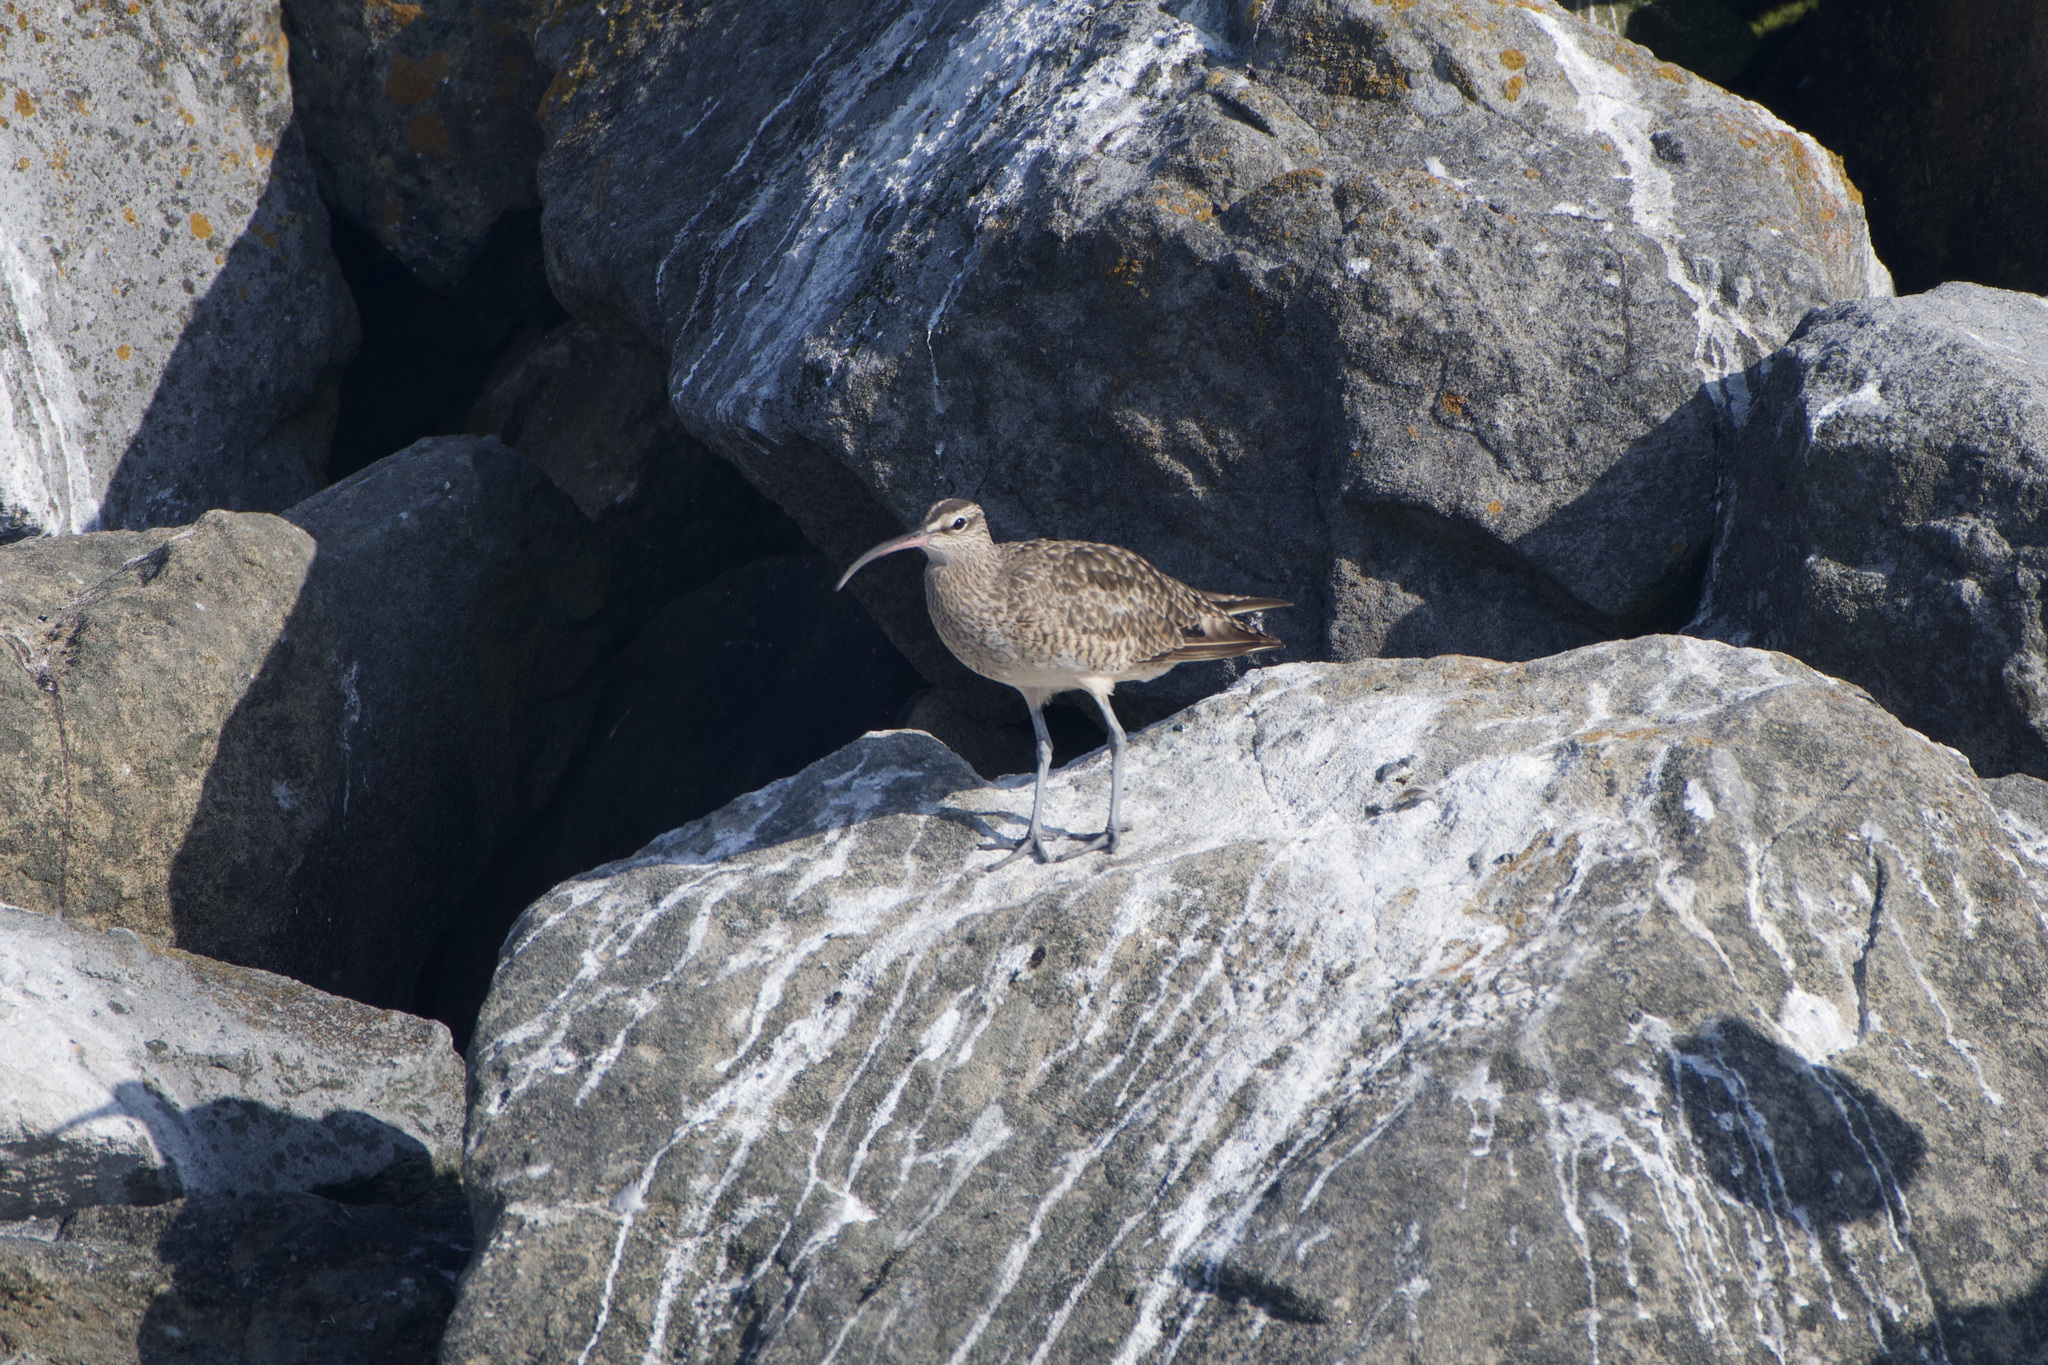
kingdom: Animalia
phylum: Chordata
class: Aves
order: Charadriiformes
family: Scolopacidae
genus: Numenius
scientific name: Numenius phaeopus
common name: Whimbrel
